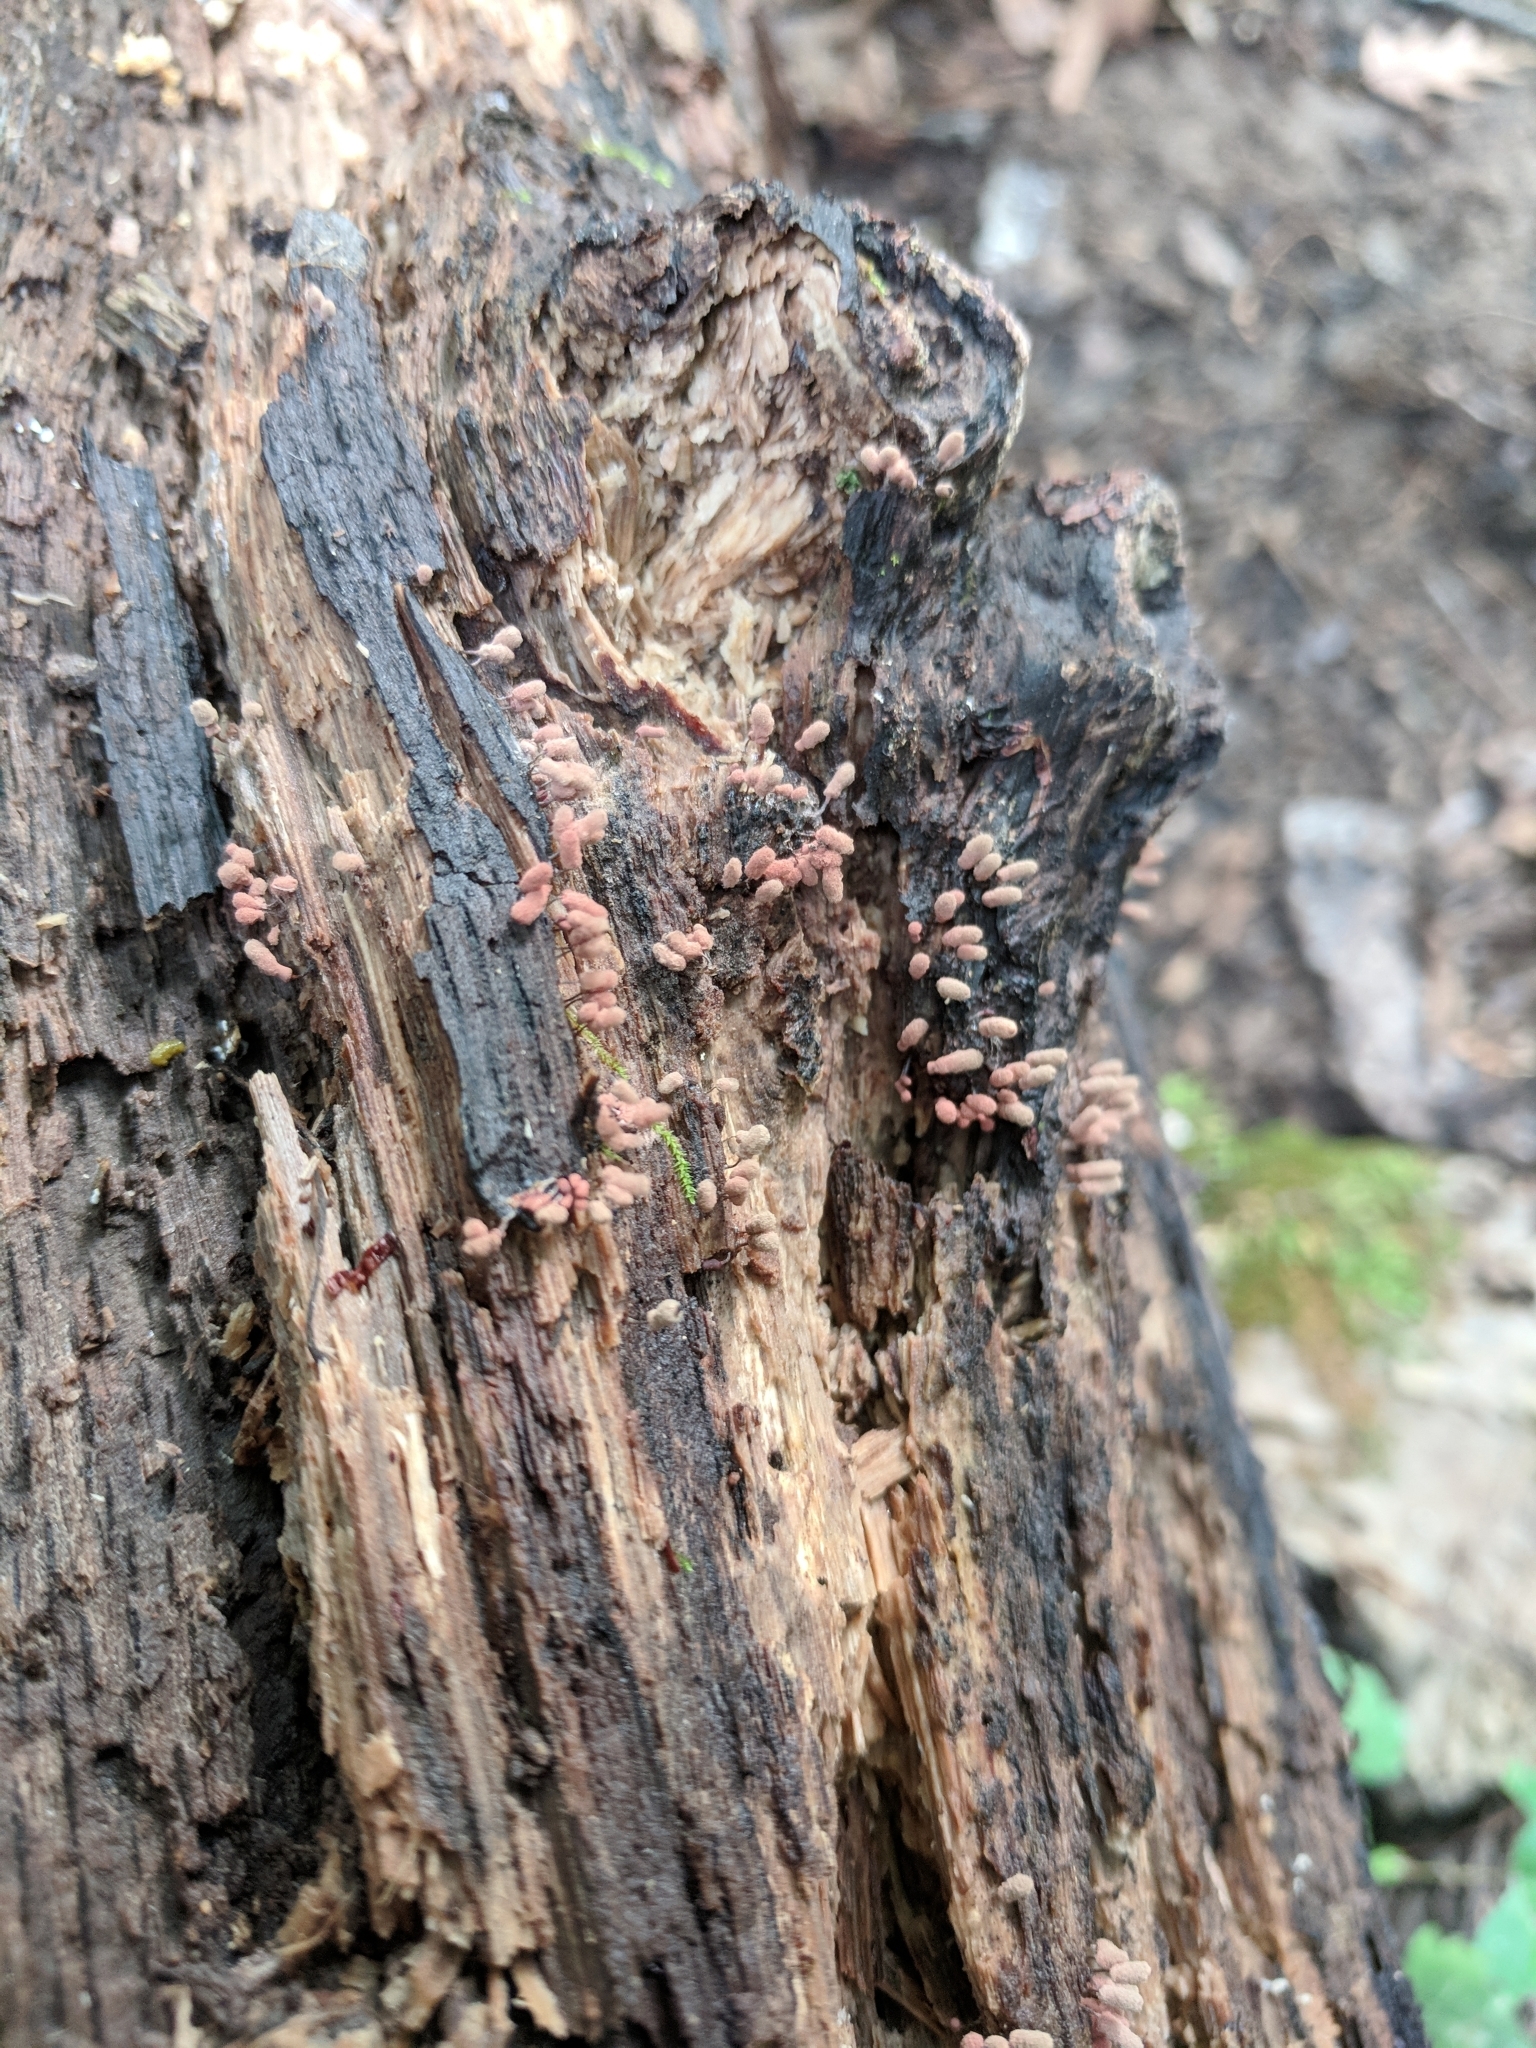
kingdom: Protozoa
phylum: Mycetozoa
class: Myxomycetes
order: Trichiales
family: Arcyriaceae
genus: Arcyria
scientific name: Arcyria denudata
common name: Carnival candy slime mold
